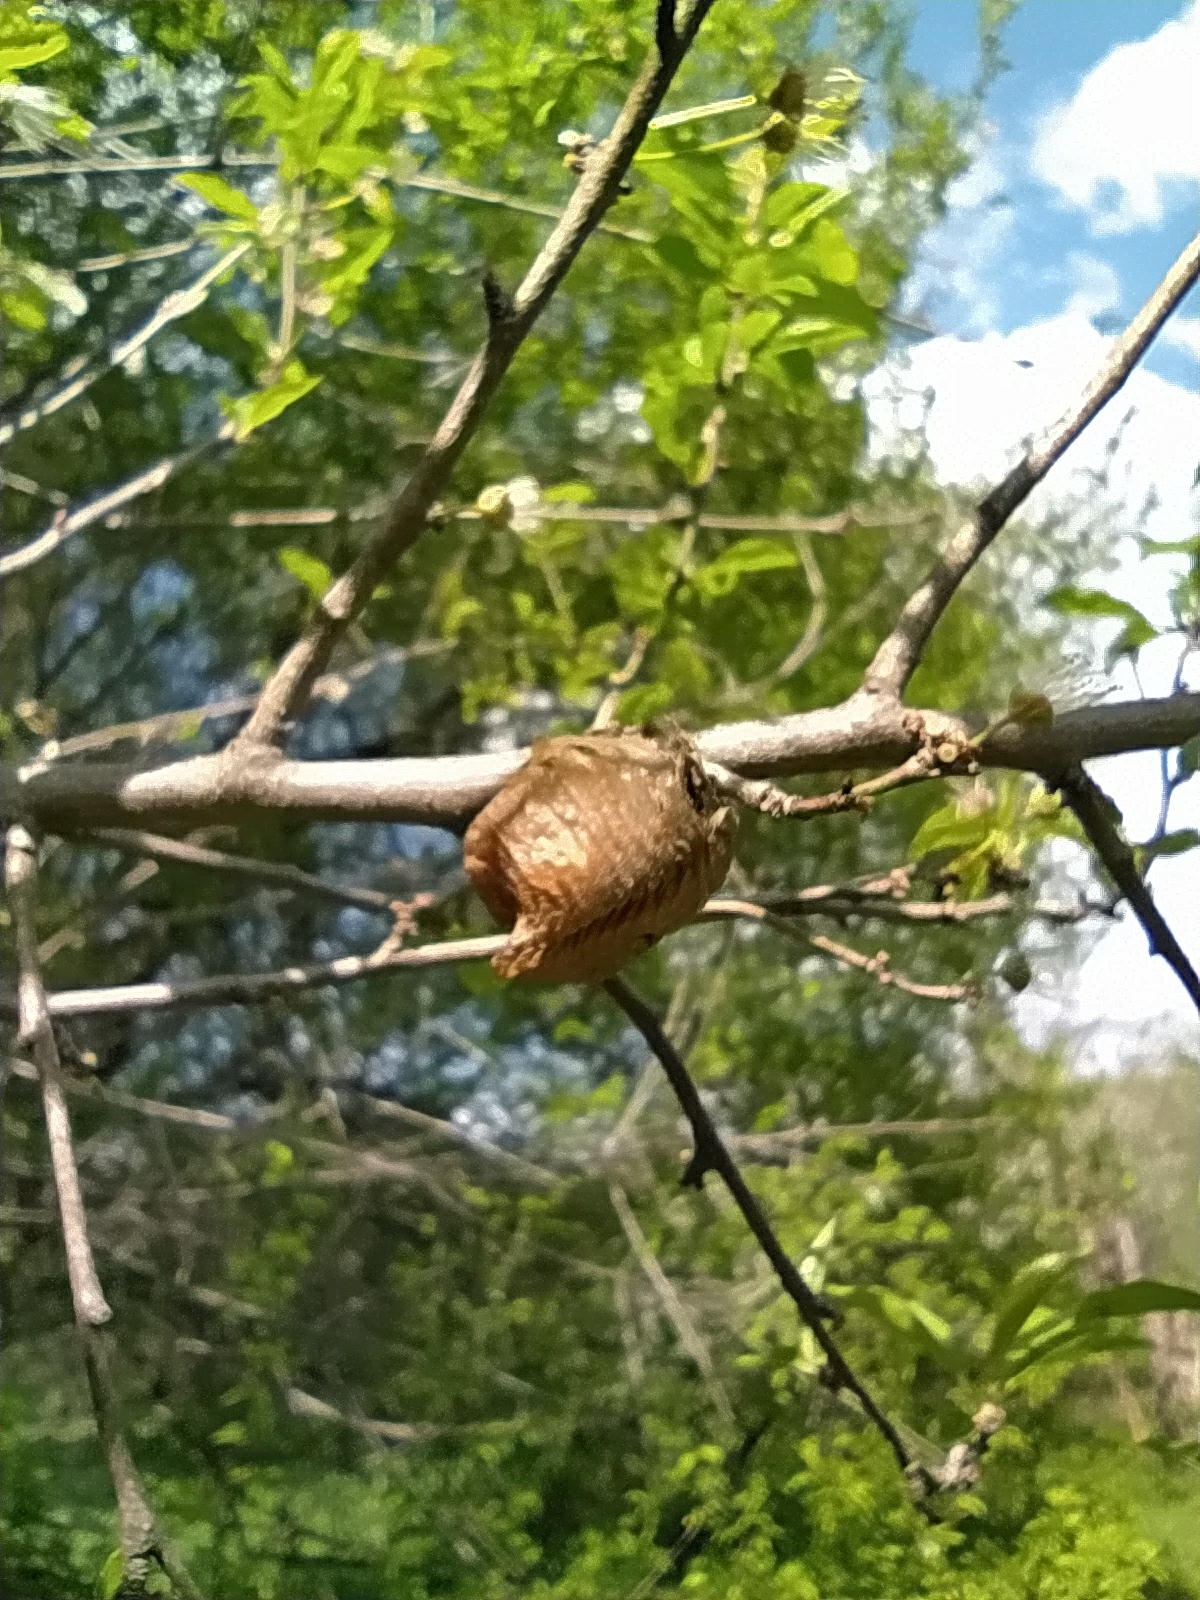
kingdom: Animalia
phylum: Arthropoda
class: Insecta
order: Mantodea
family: Mantidae
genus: Hierodula
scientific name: Hierodula transcaucasica
